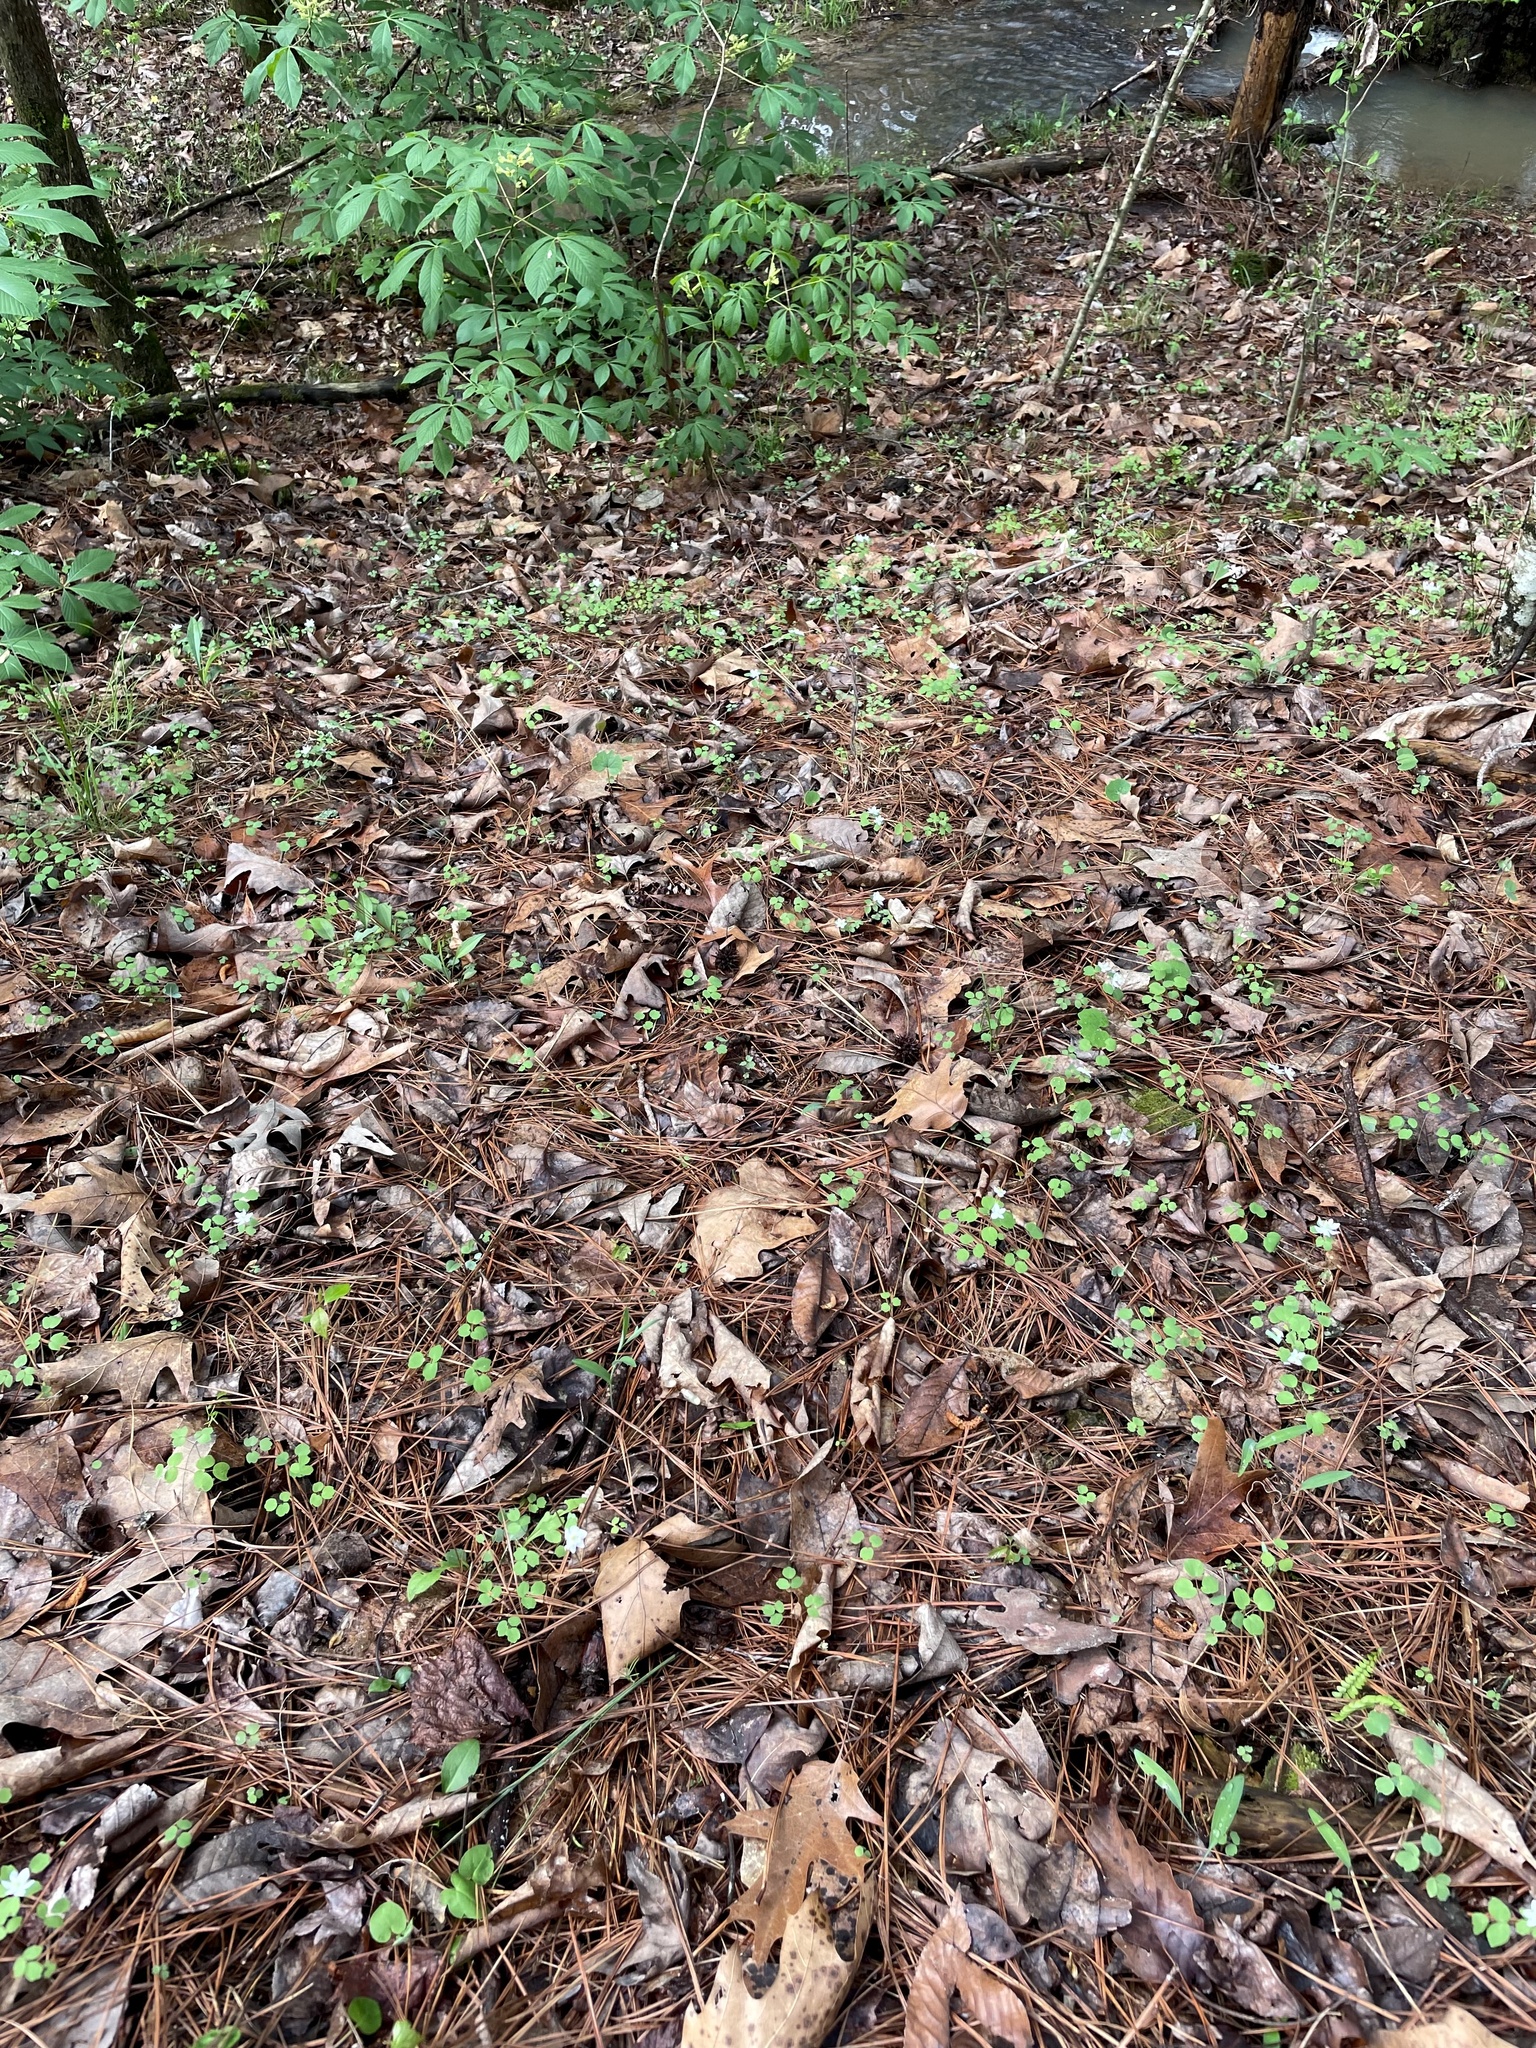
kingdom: Plantae
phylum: Tracheophyta
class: Magnoliopsida
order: Ranunculales
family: Ranunculaceae
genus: Thalictrum
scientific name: Thalictrum thalictroides
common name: Rue-anemone
